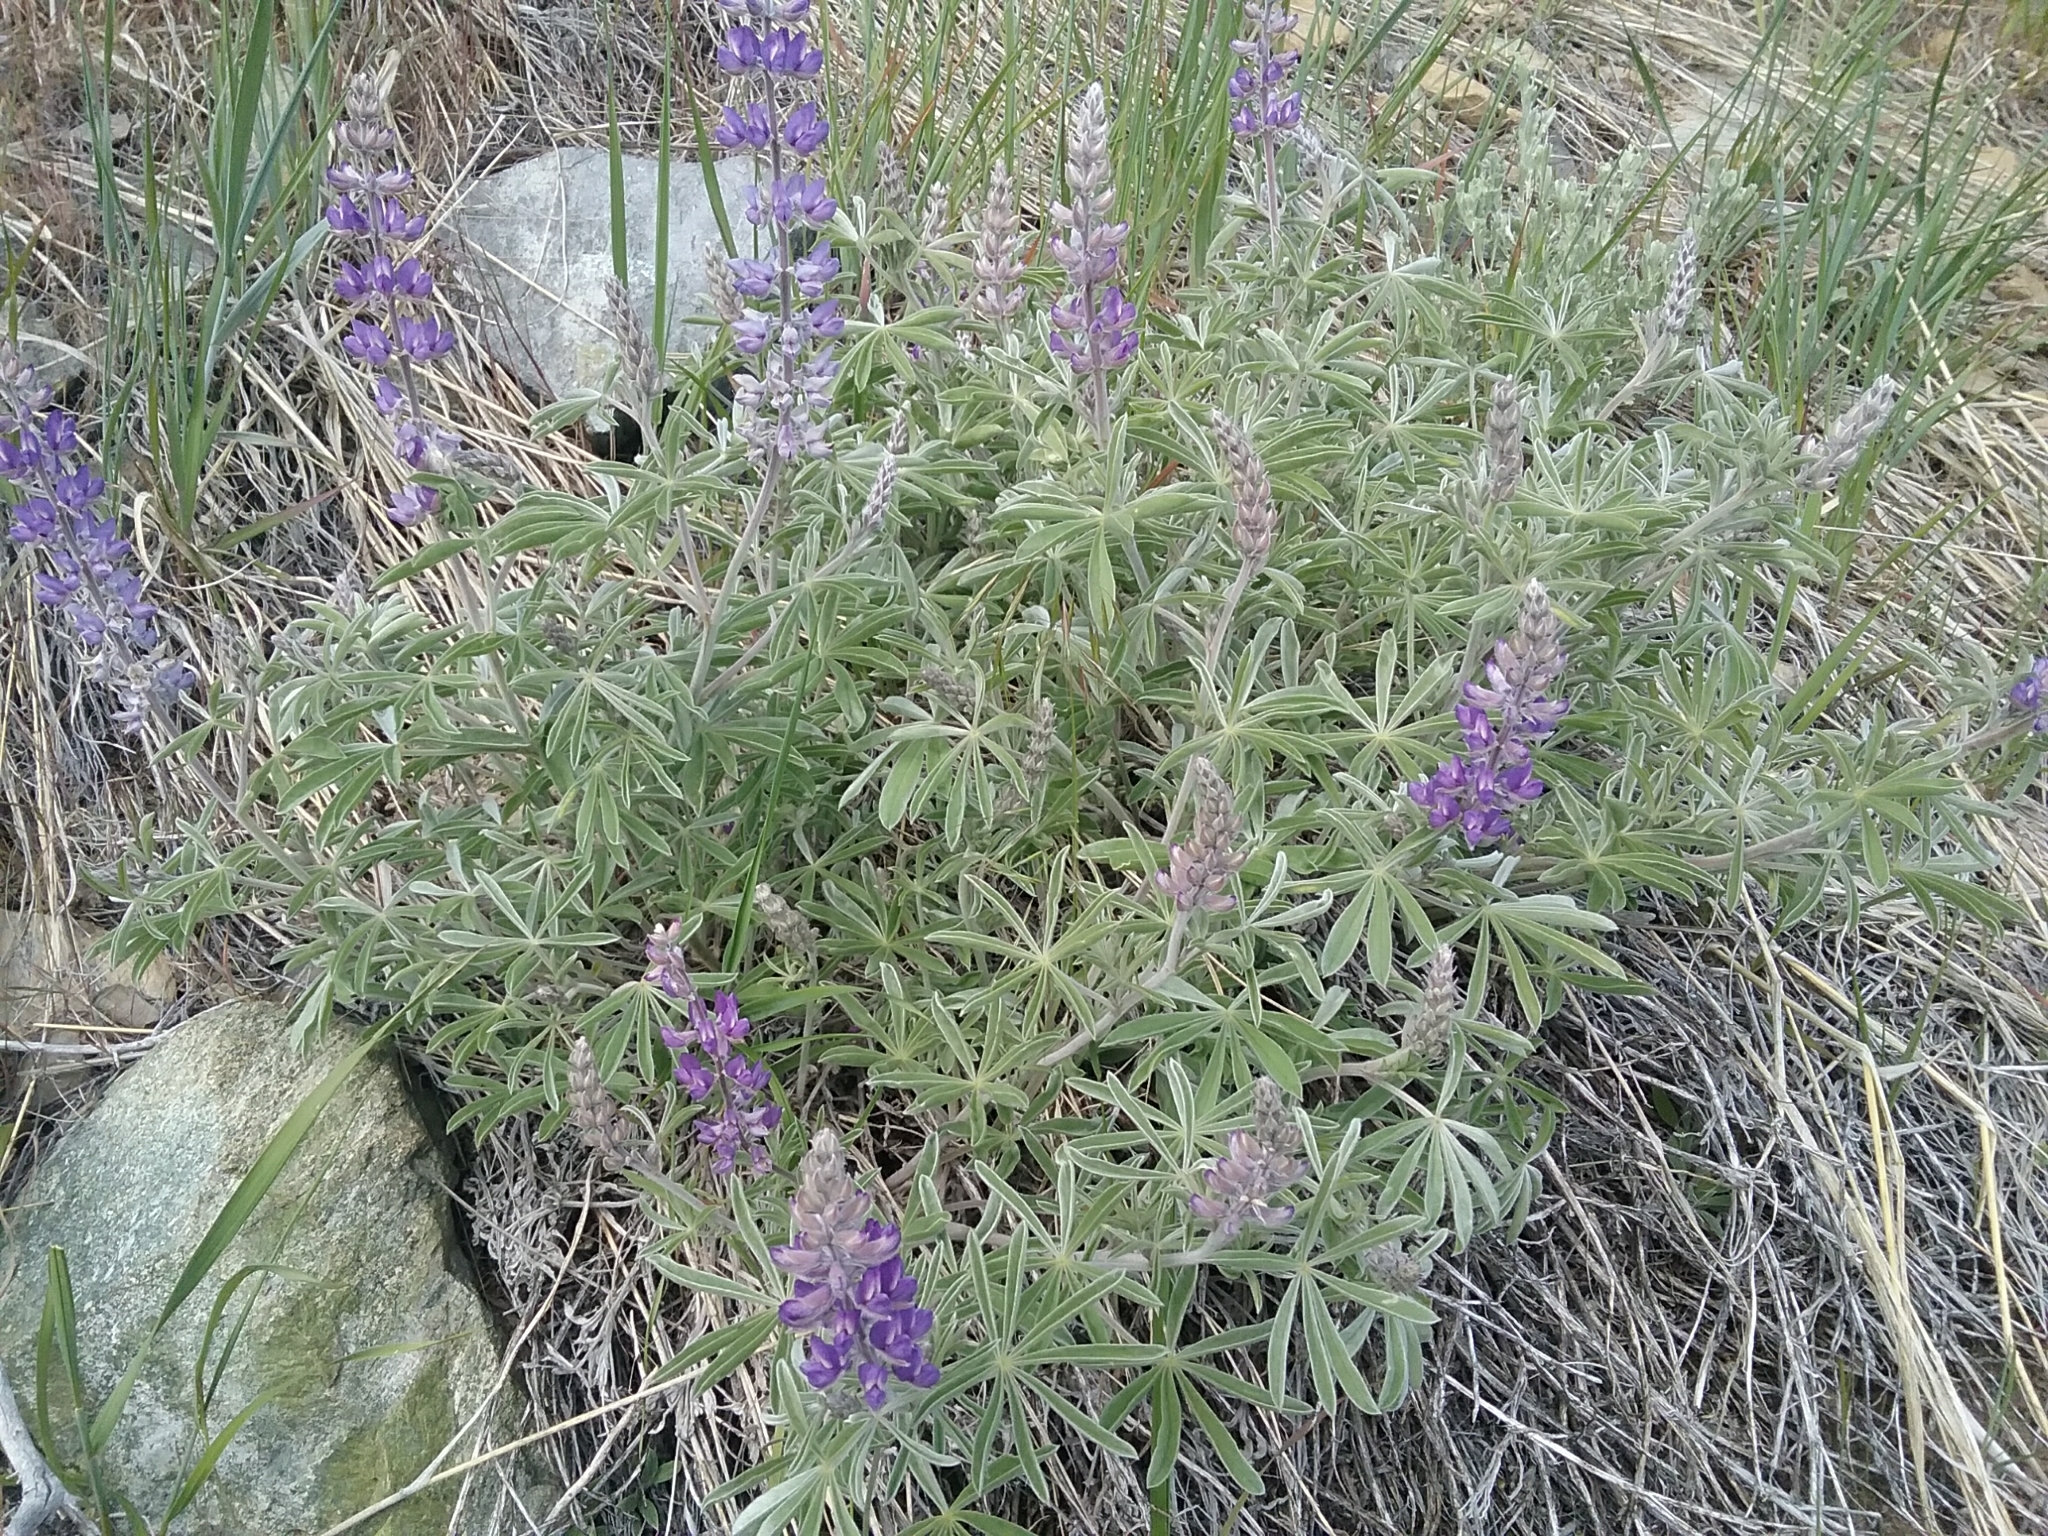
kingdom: Plantae
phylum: Tracheophyta
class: Magnoliopsida
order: Fabales
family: Fabaceae
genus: Lupinus
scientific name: Lupinus argenteus
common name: Silvery lupine
